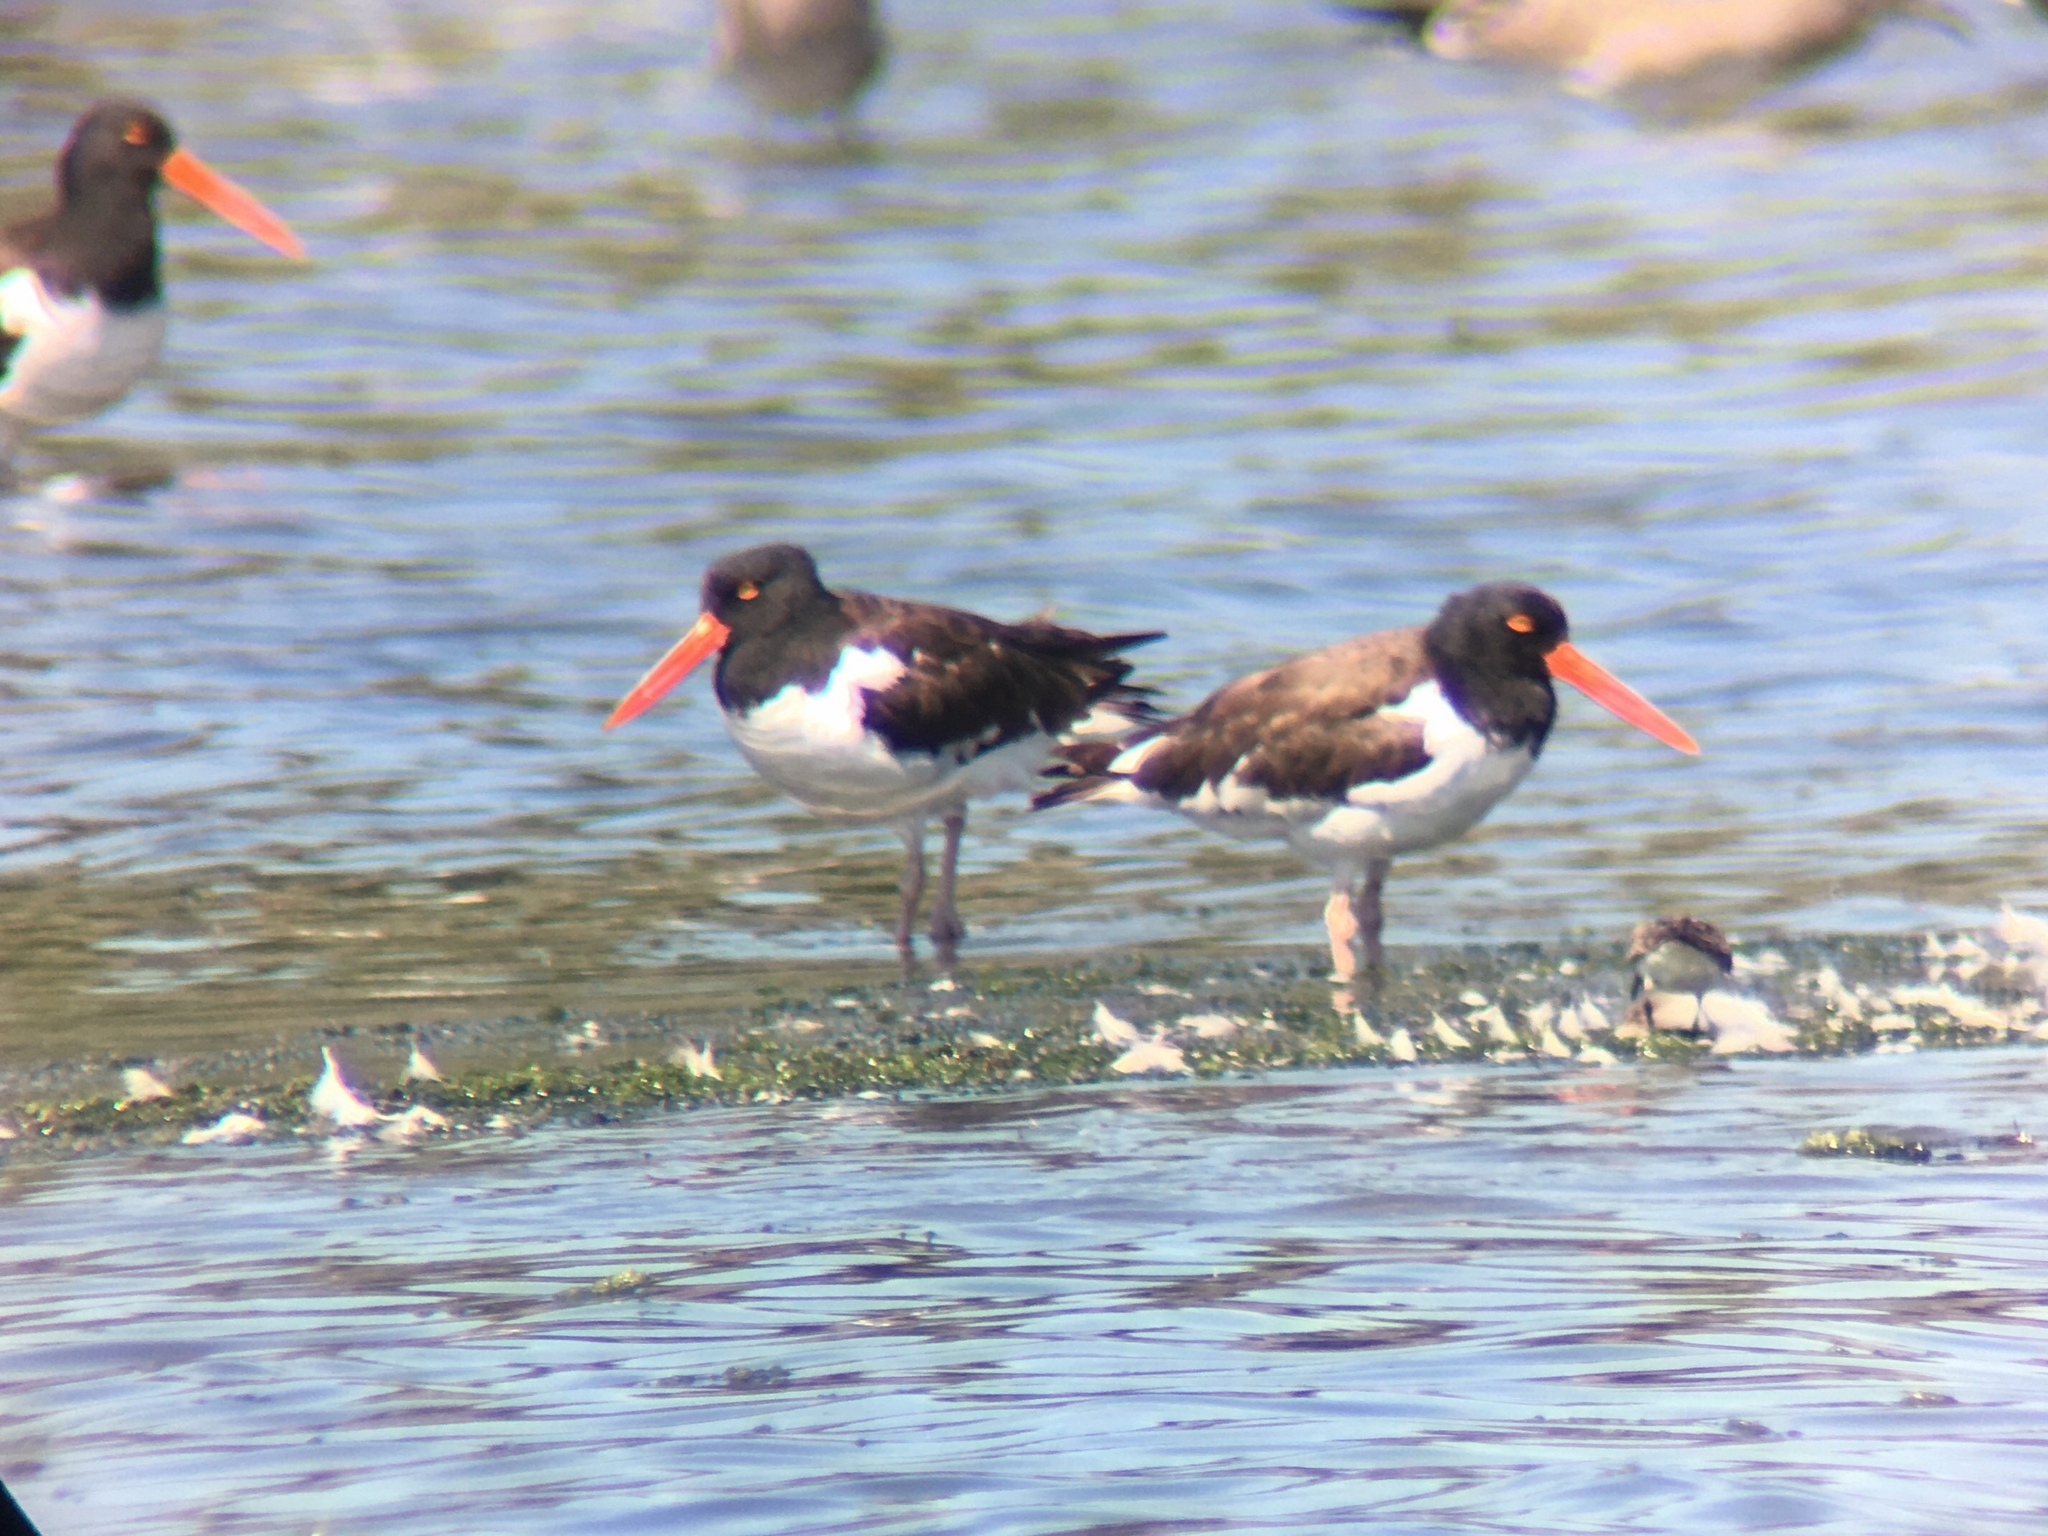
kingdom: Animalia
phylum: Chordata
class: Aves
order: Charadriiformes
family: Haematopodidae
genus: Haematopus
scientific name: Haematopus palliatus
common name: American oystercatcher
